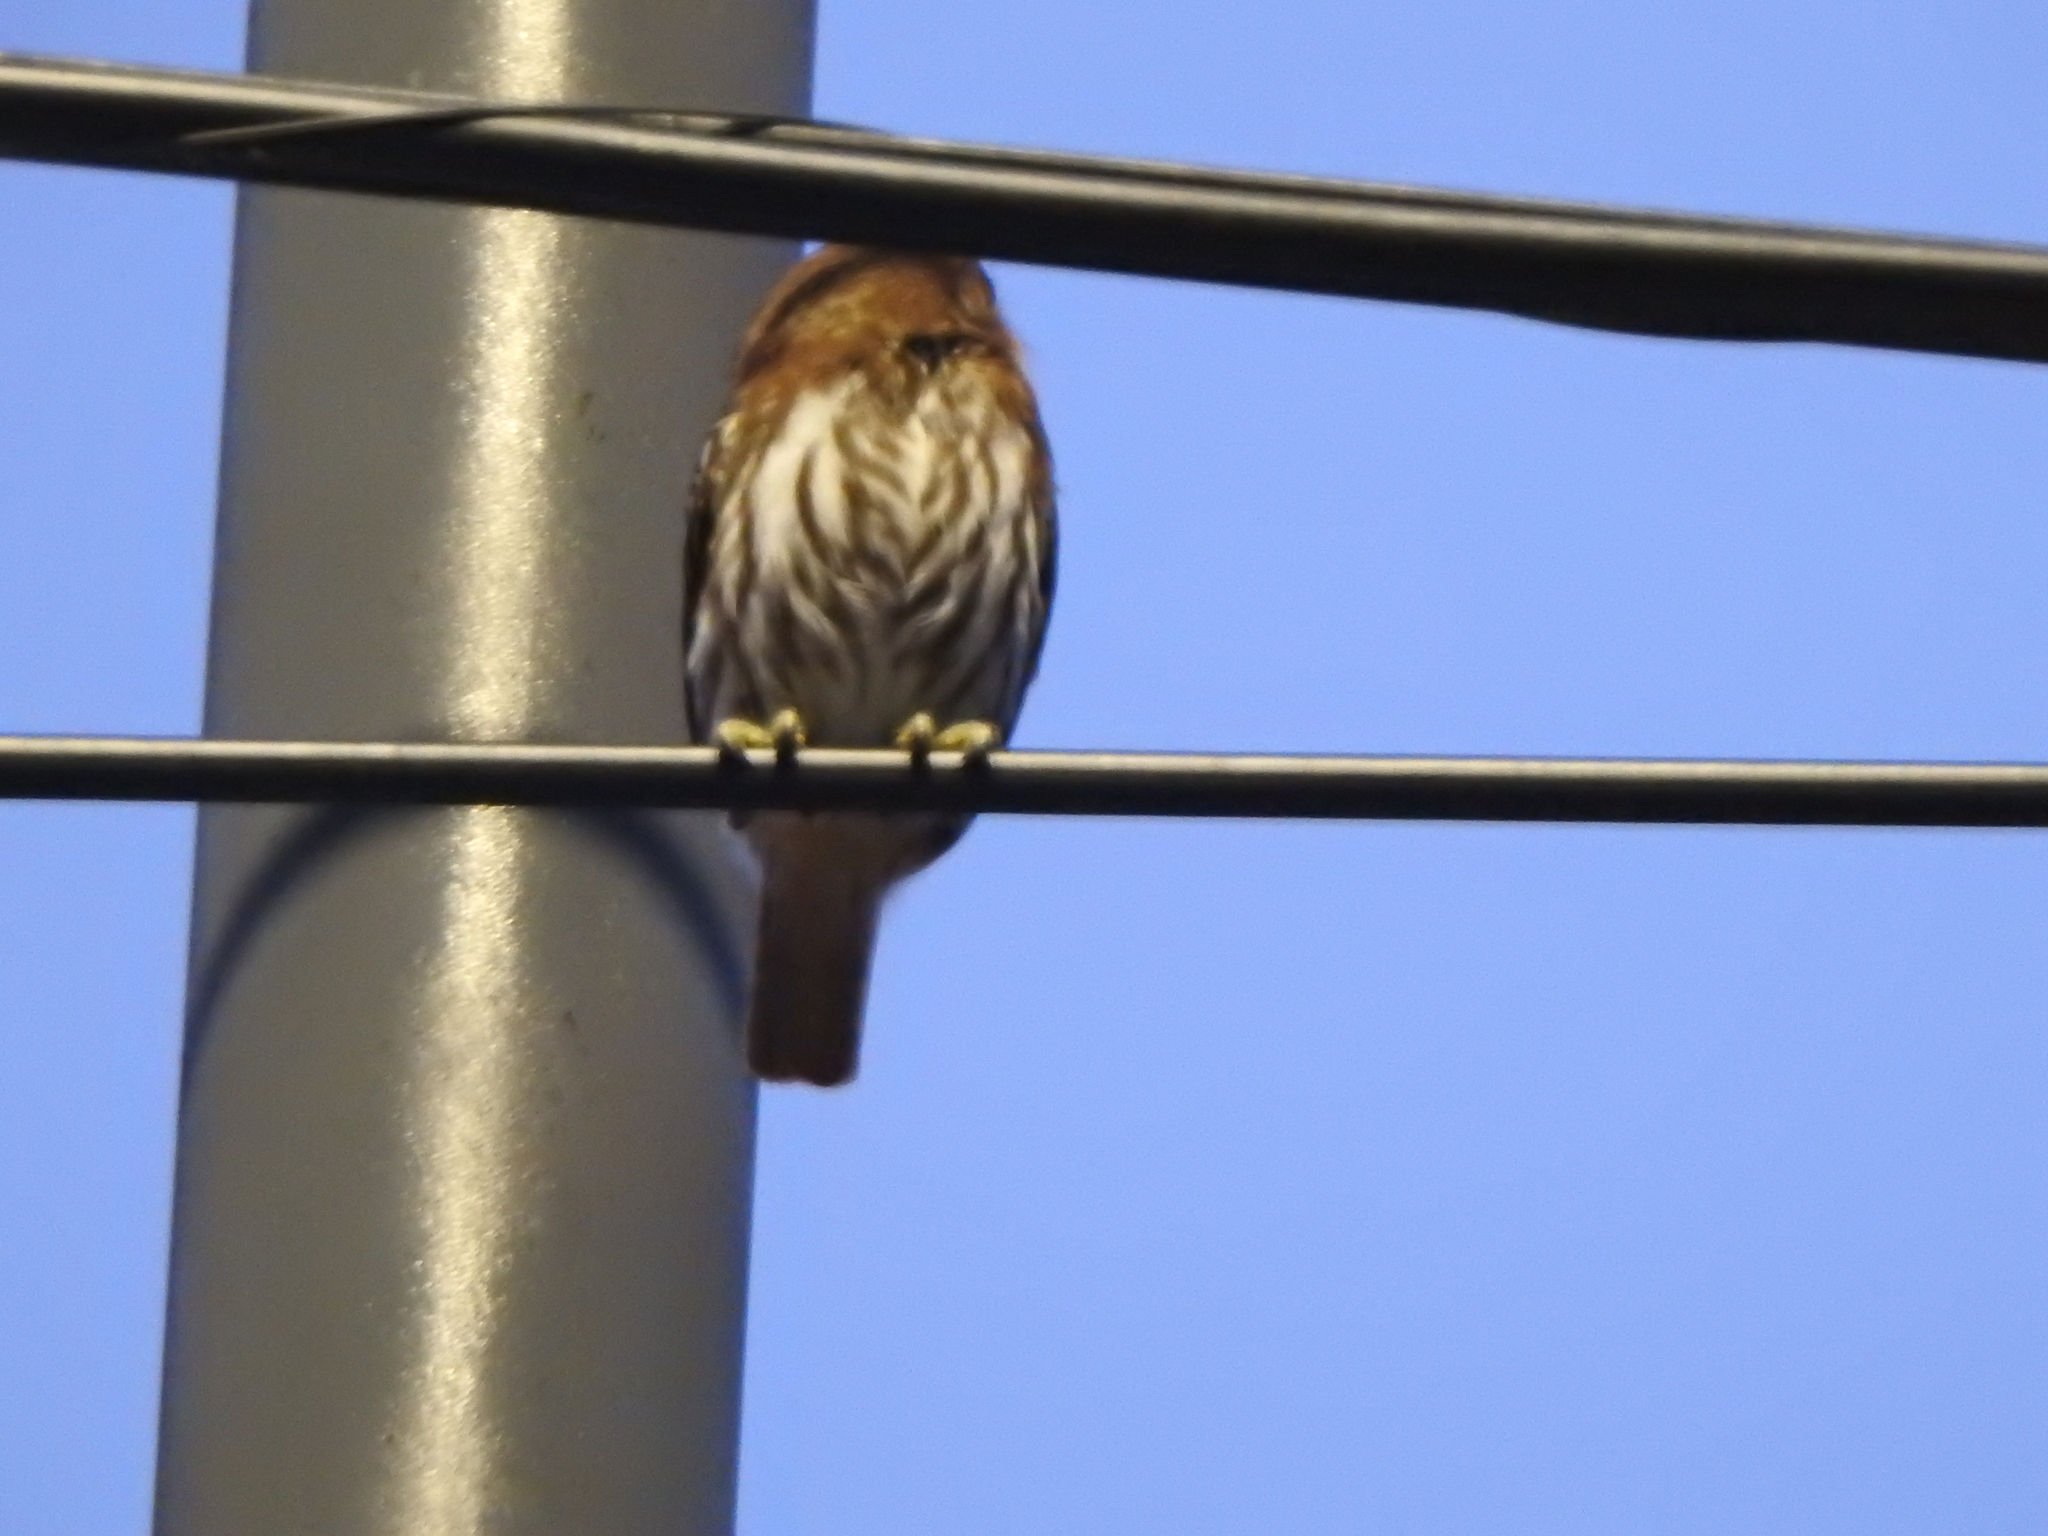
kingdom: Animalia
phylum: Chordata
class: Aves
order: Strigiformes
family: Strigidae
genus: Glaucidium
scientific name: Glaucidium brasilianum
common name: Ferruginous pygmy-owl
